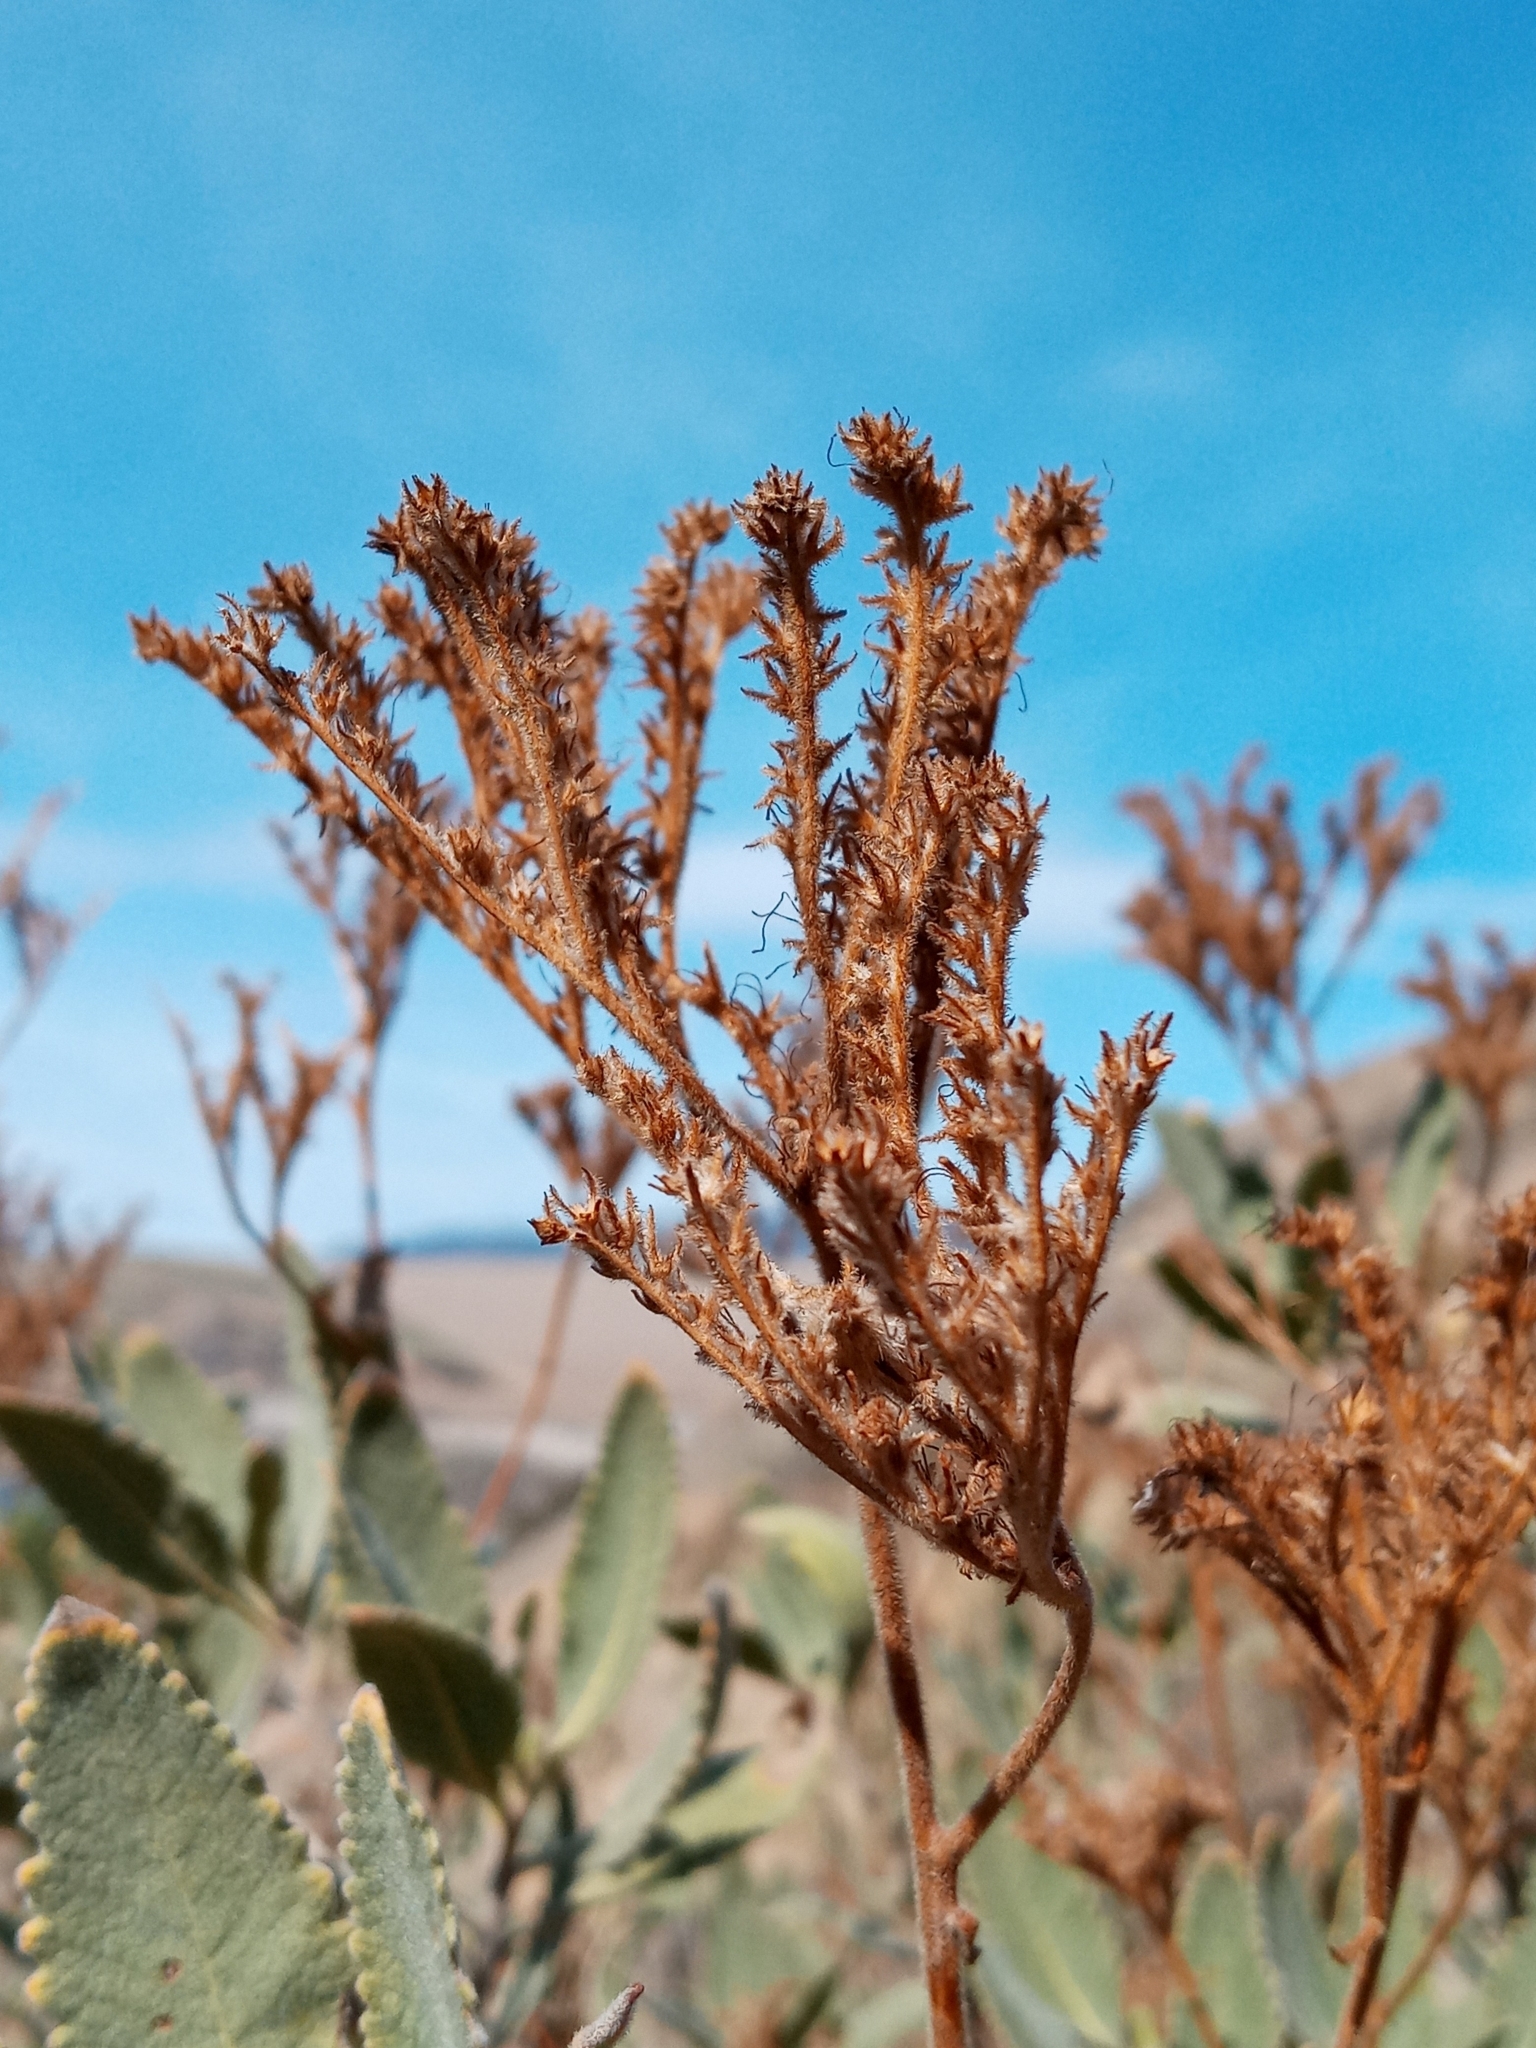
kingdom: Plantae
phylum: Tracheophyta
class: Magnoliopsida
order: Boraginales
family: Namaceae
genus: Eriodictyon
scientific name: Eriodictyon crassifolium
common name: Thick-leaf yerba-santa
